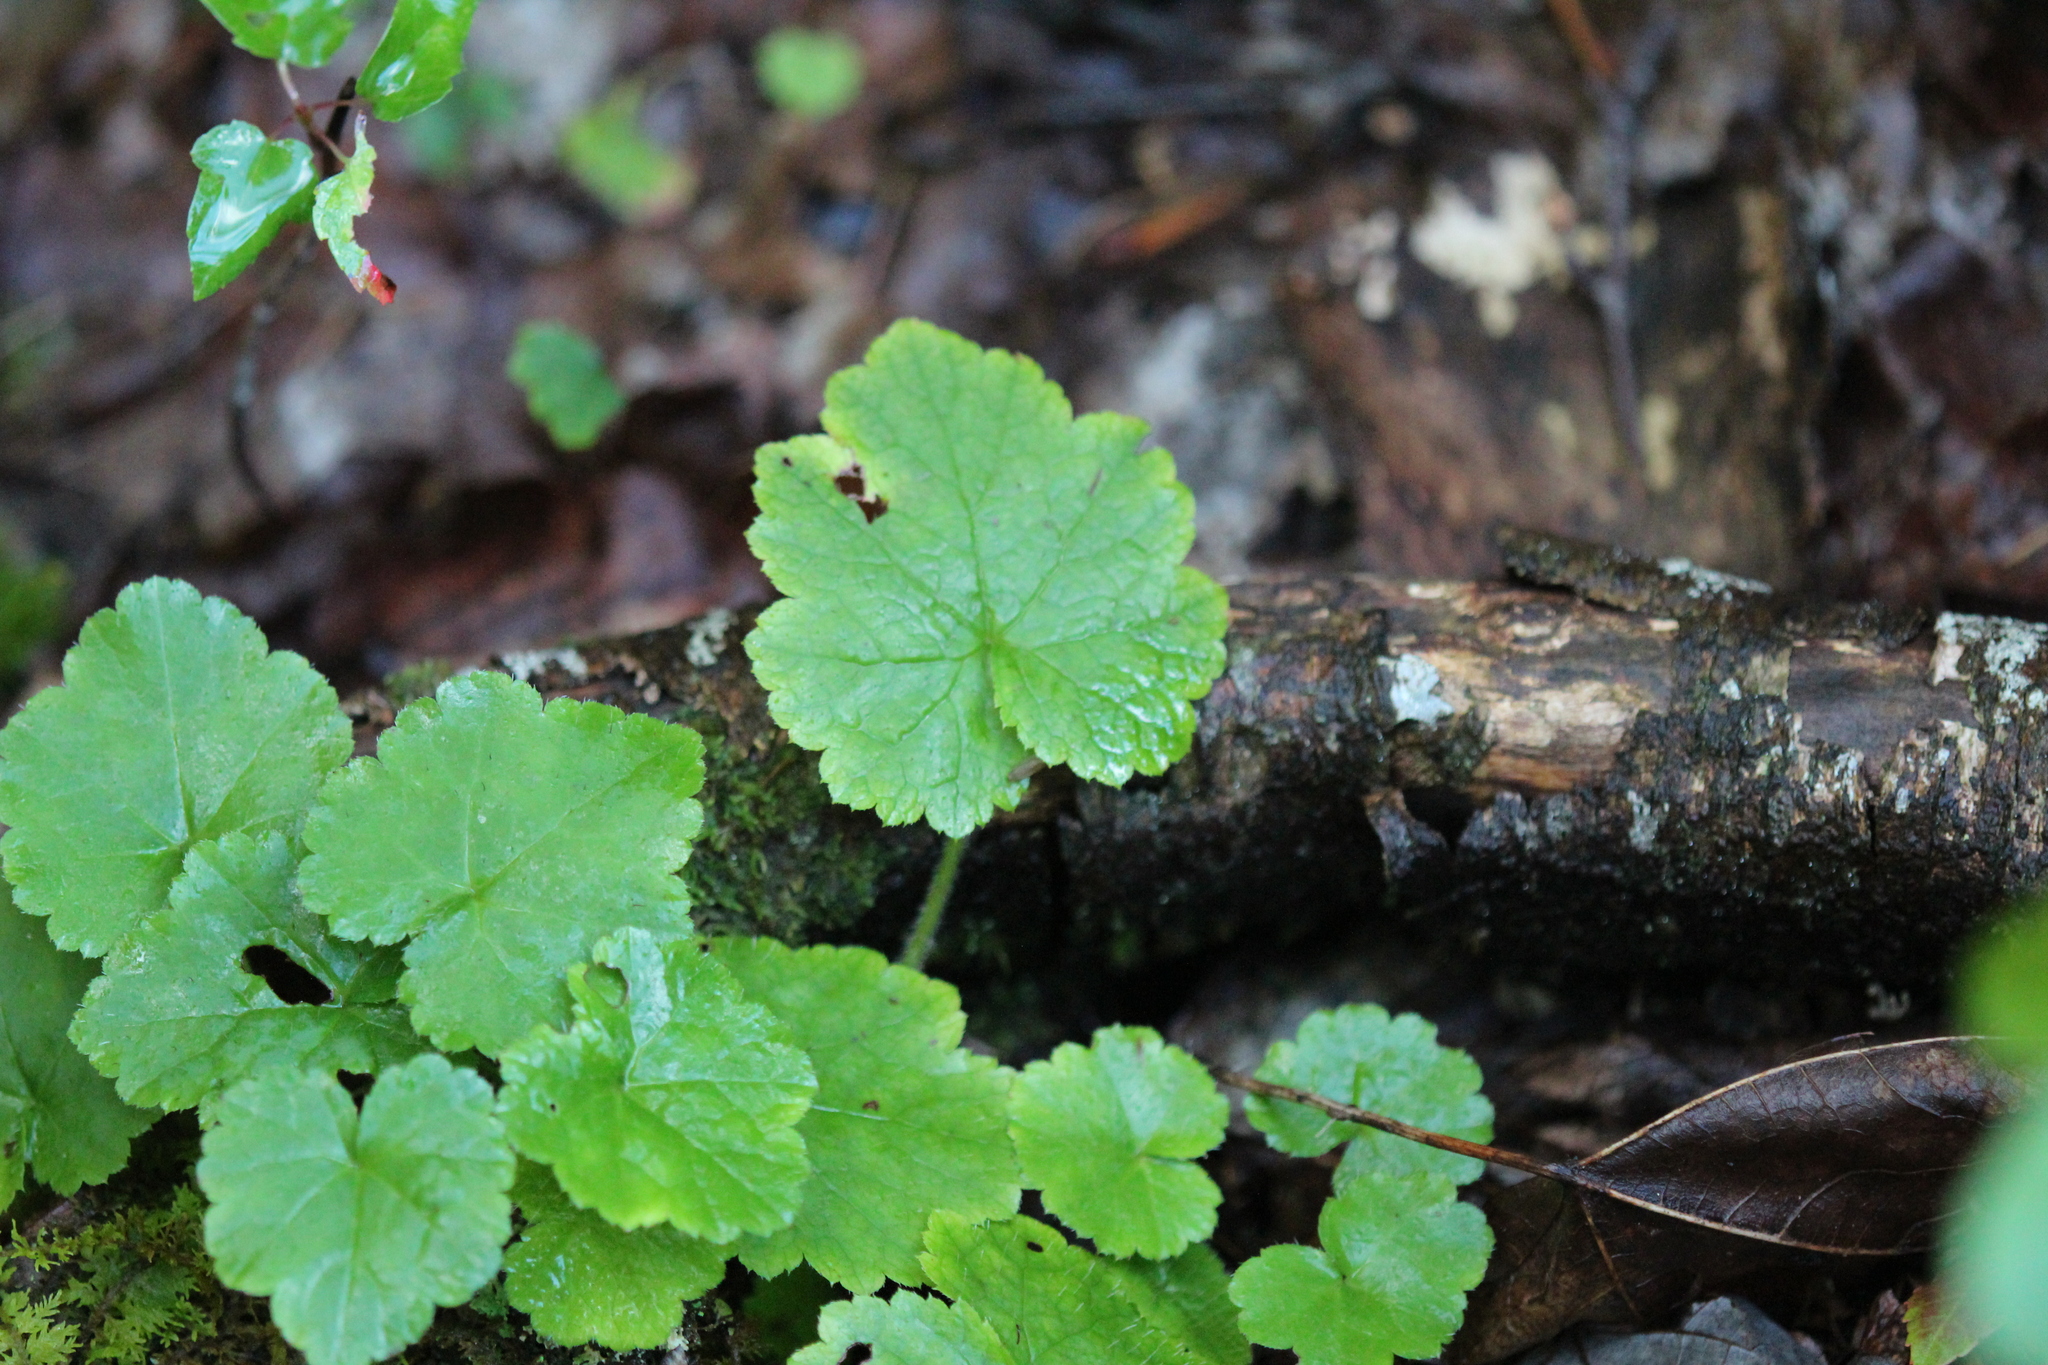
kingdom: Plantae
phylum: Tracheophyta
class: Magnoliopsida
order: Saxifragales
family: Saxifragaceae
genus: Tiarella
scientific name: Tiarella stolonifera
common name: Stoloniferous foamflower
